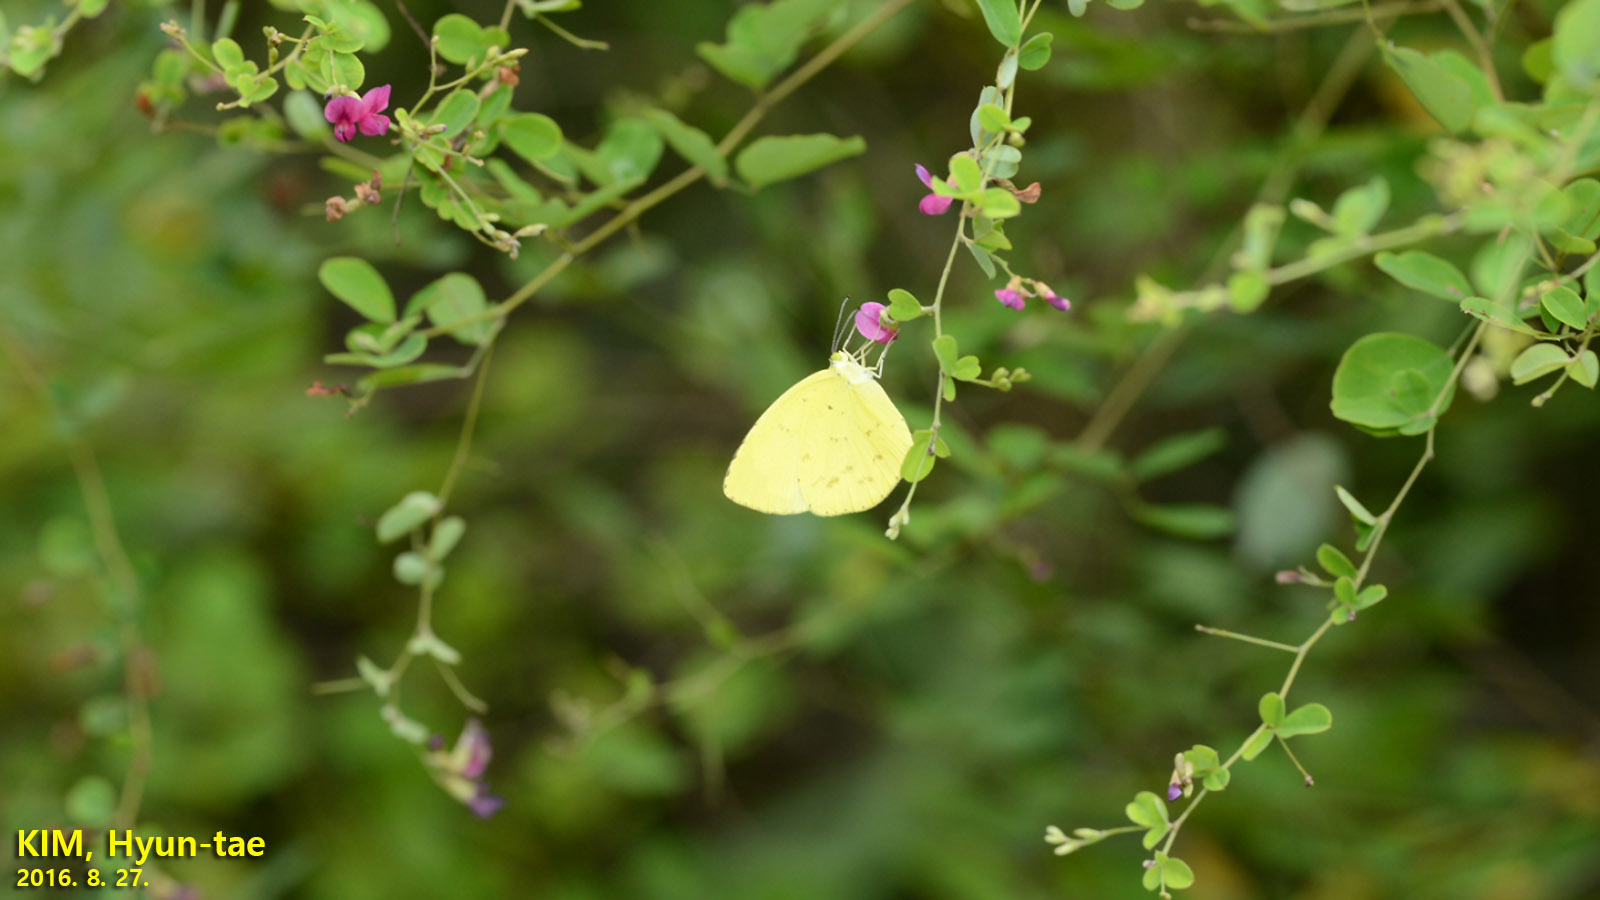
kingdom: Animalia
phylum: Arthropoda
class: Insecta
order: Lepidoptera
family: Pieridae
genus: Eurema
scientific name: Eurema mandarina
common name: Japanese common grass yellow
